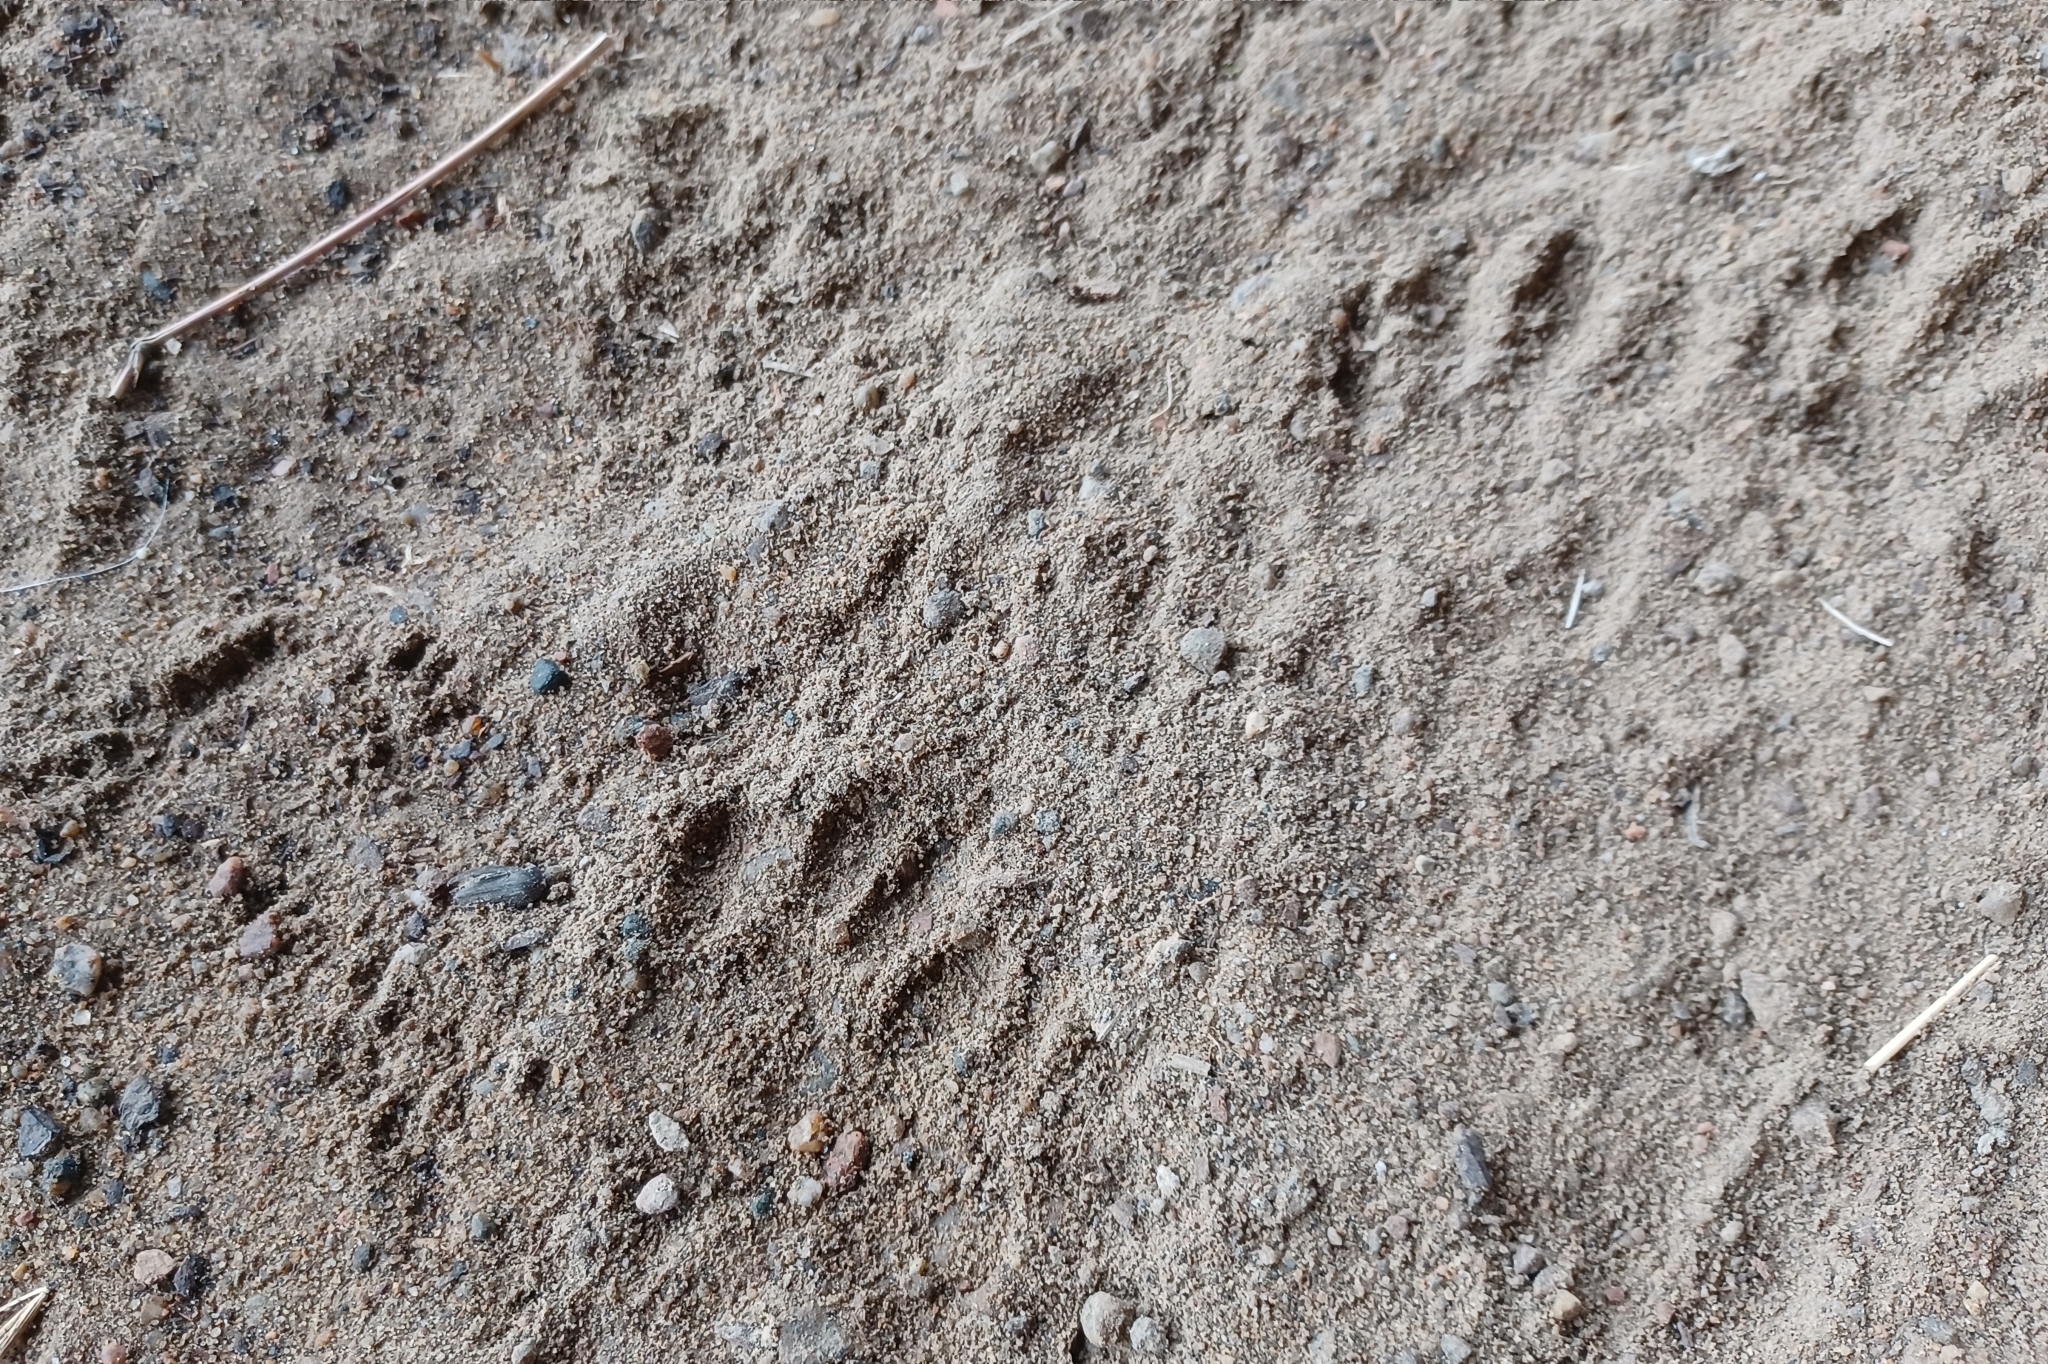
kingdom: Animalia
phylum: Chordata
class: Mammalia
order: Carnivora
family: Procyonidae
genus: Procyon
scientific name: Procyon lotor
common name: Raccoon
